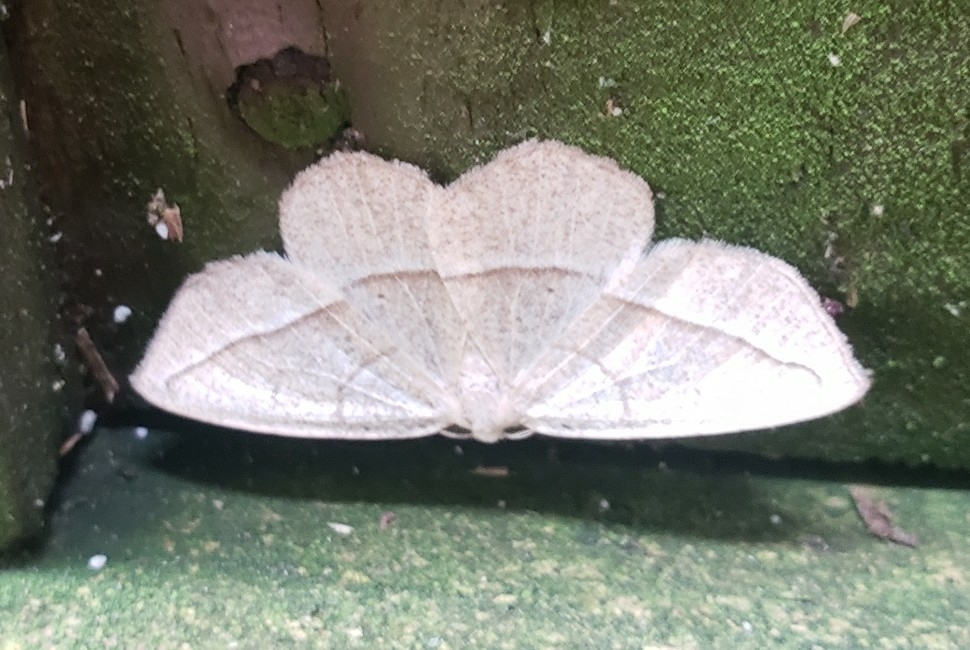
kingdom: Animalia
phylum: Arthropoda
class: Insecta
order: Lepidoptera
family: Geometridae
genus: Eusarca
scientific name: Eusarca confusaria
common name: Confused eusarca
